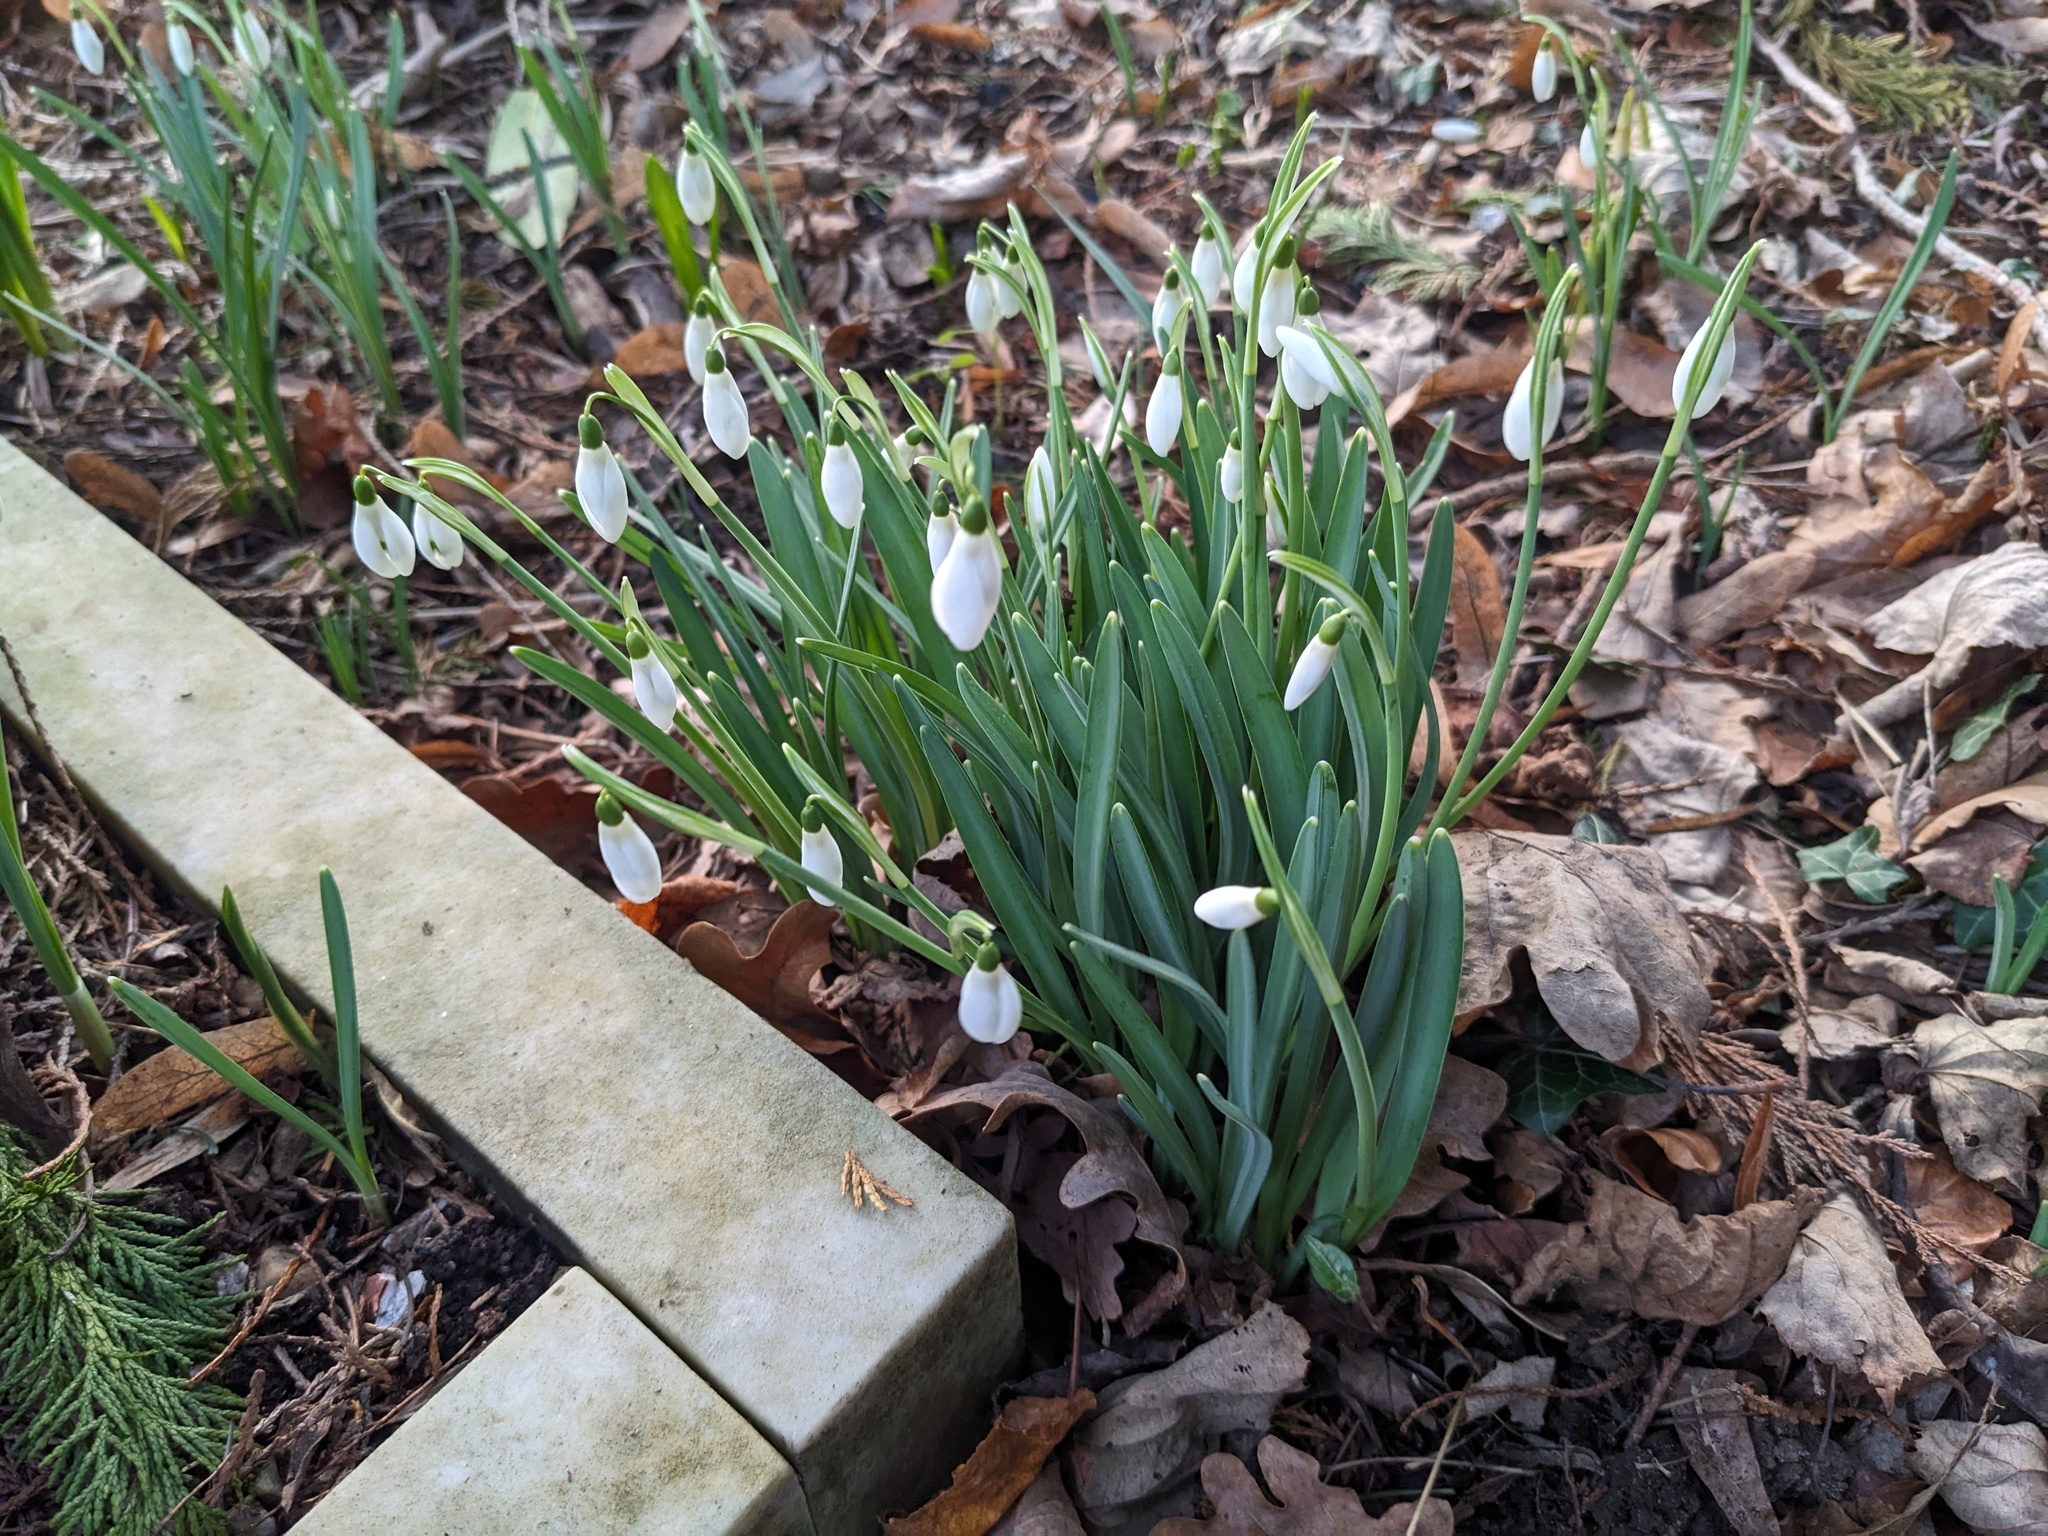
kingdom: Plantae
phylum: Tracheophyta
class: Liliopsida
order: Asparagales
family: Amaryllidaceae
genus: Galanthus
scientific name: Galanthus nivalis
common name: Snowdrop
